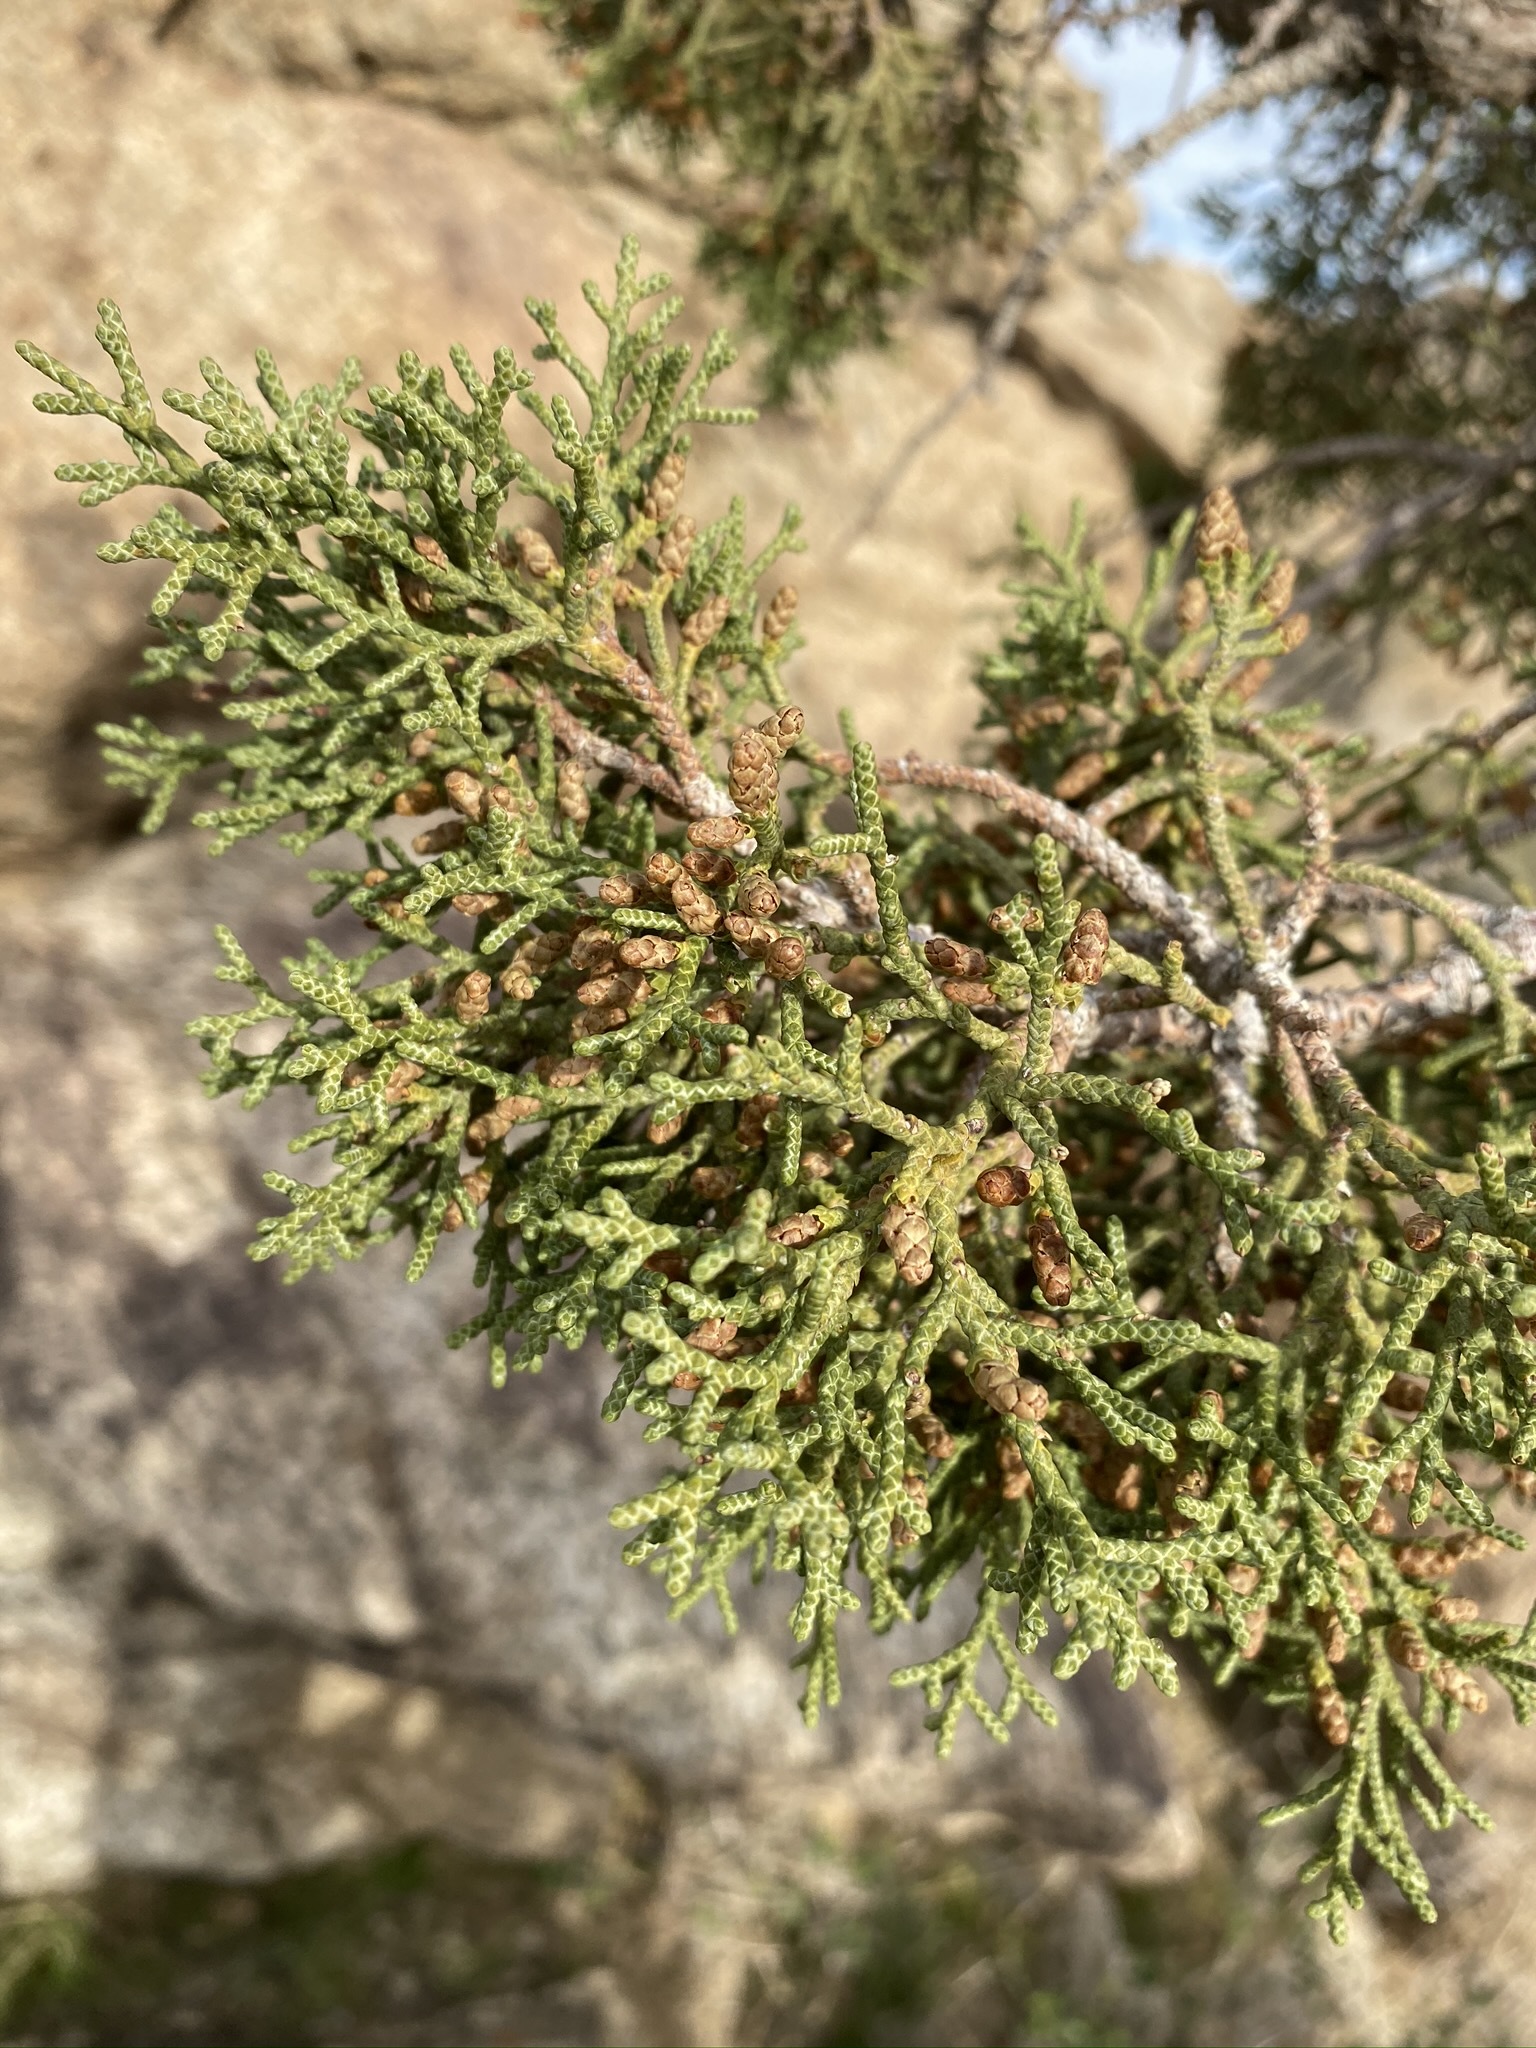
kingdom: Plantae
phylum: Tracheophyta
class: Pinopsida
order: Pinales
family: Cupressaceae
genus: Juniperus
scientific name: Juniperus californica
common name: California juniper
